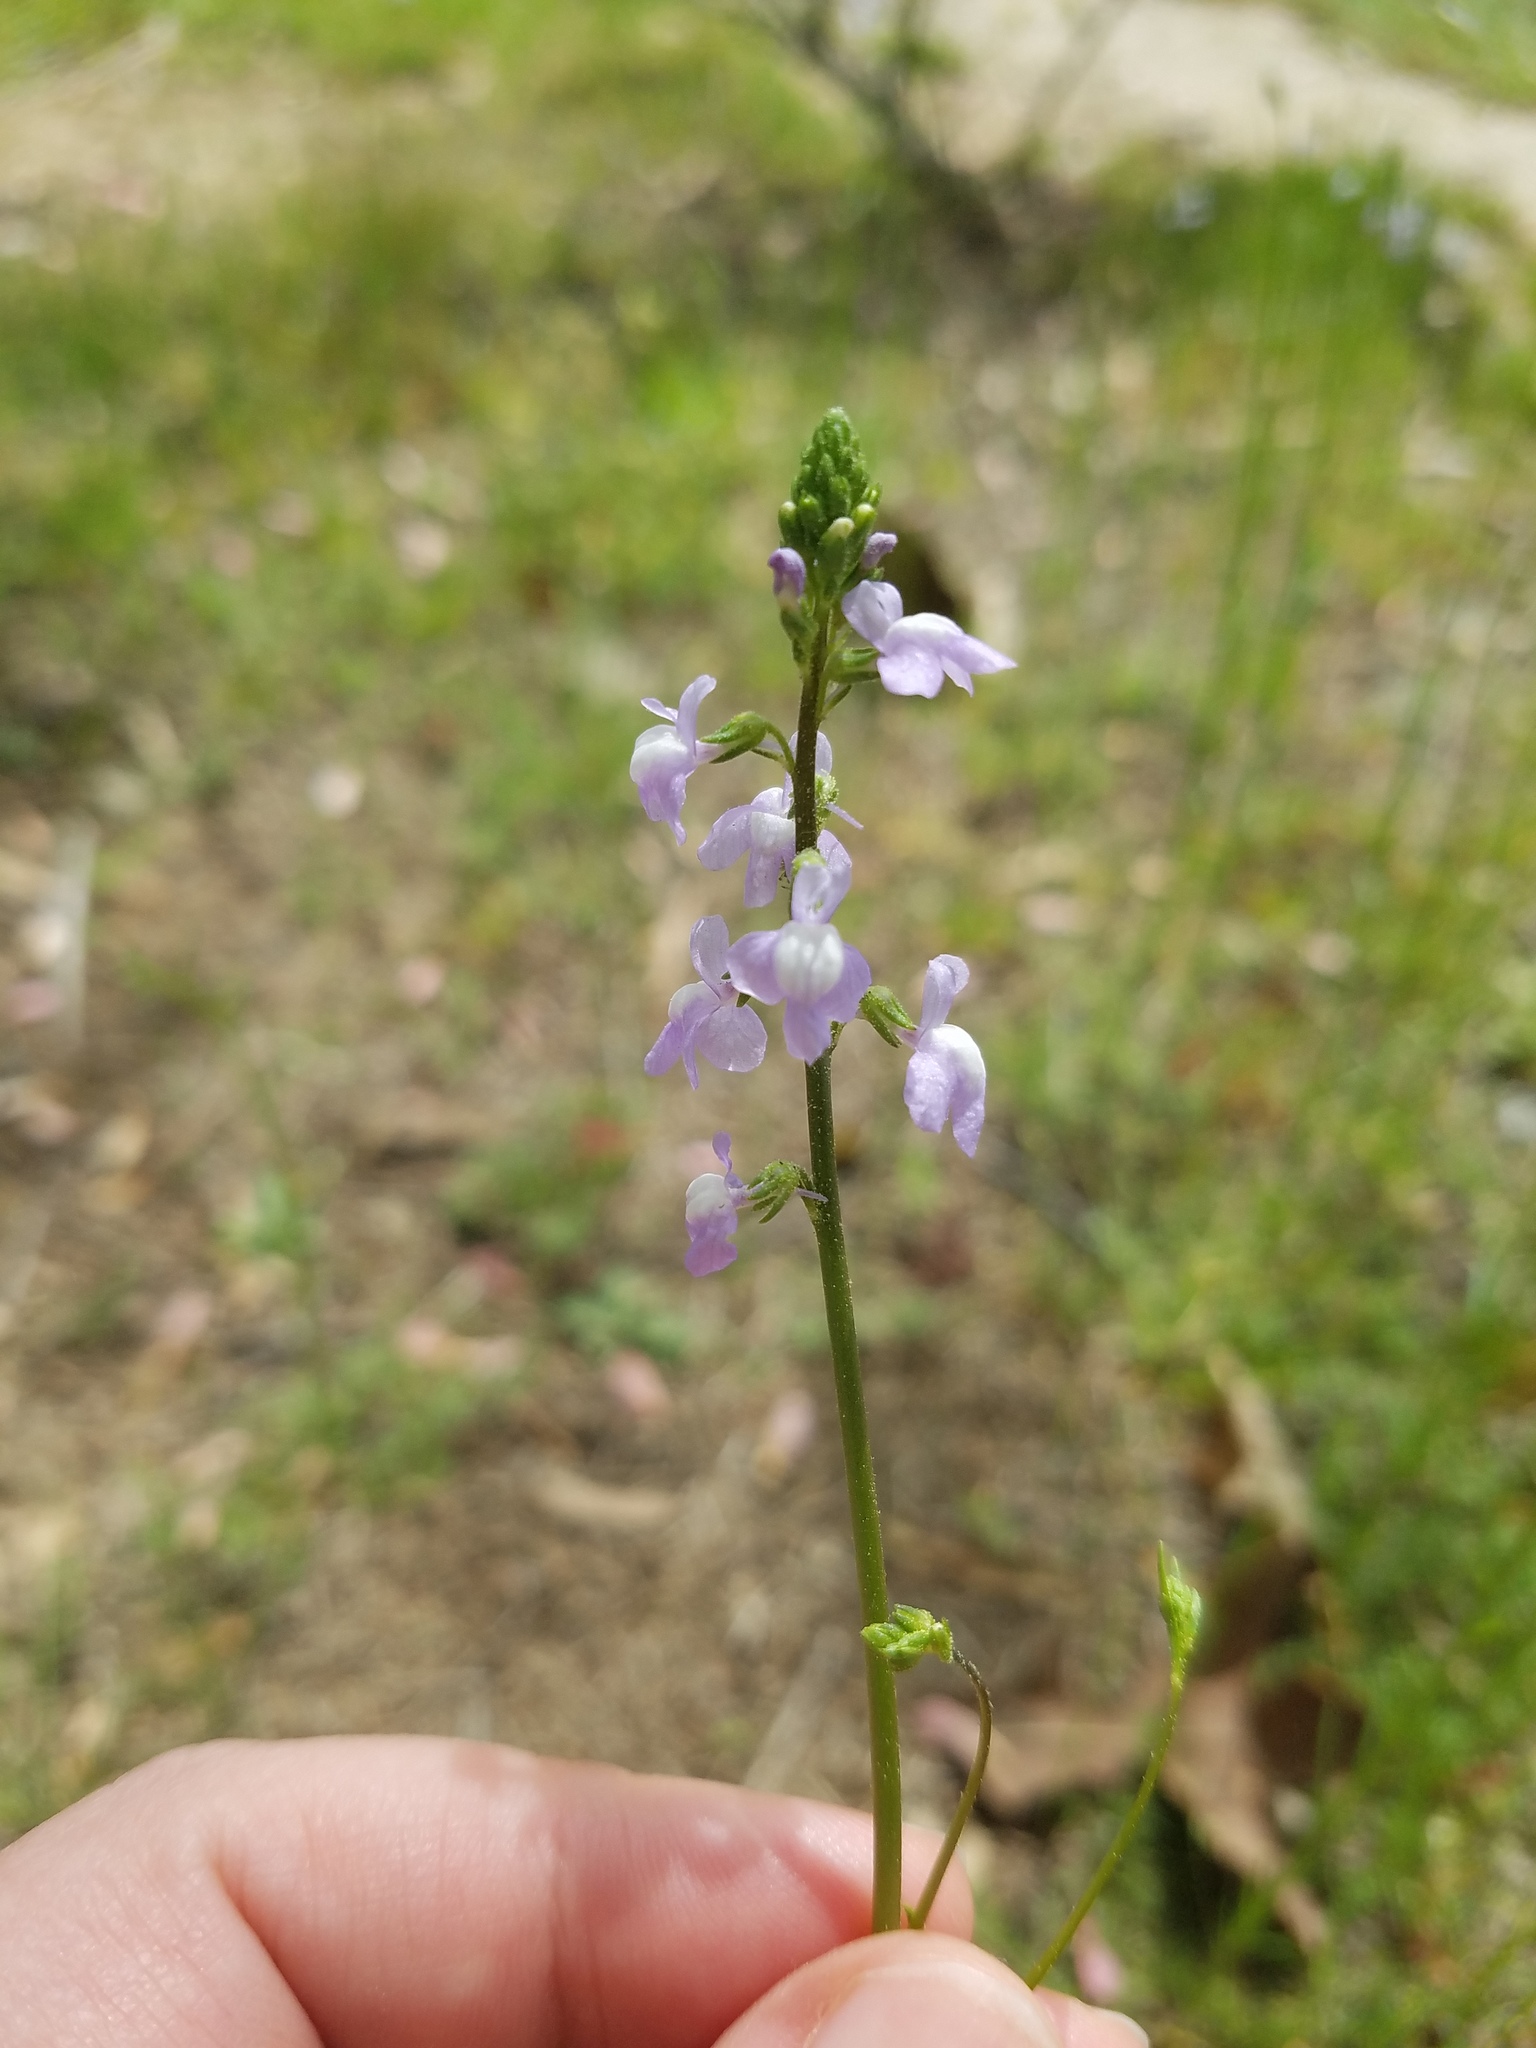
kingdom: Plantae
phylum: Tracheophyta
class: Magnoliopsida
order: Lamiales
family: Plantaginaceae
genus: Nuttallanthus
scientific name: Nuttallanthus canadensis
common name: Blue toadflax
